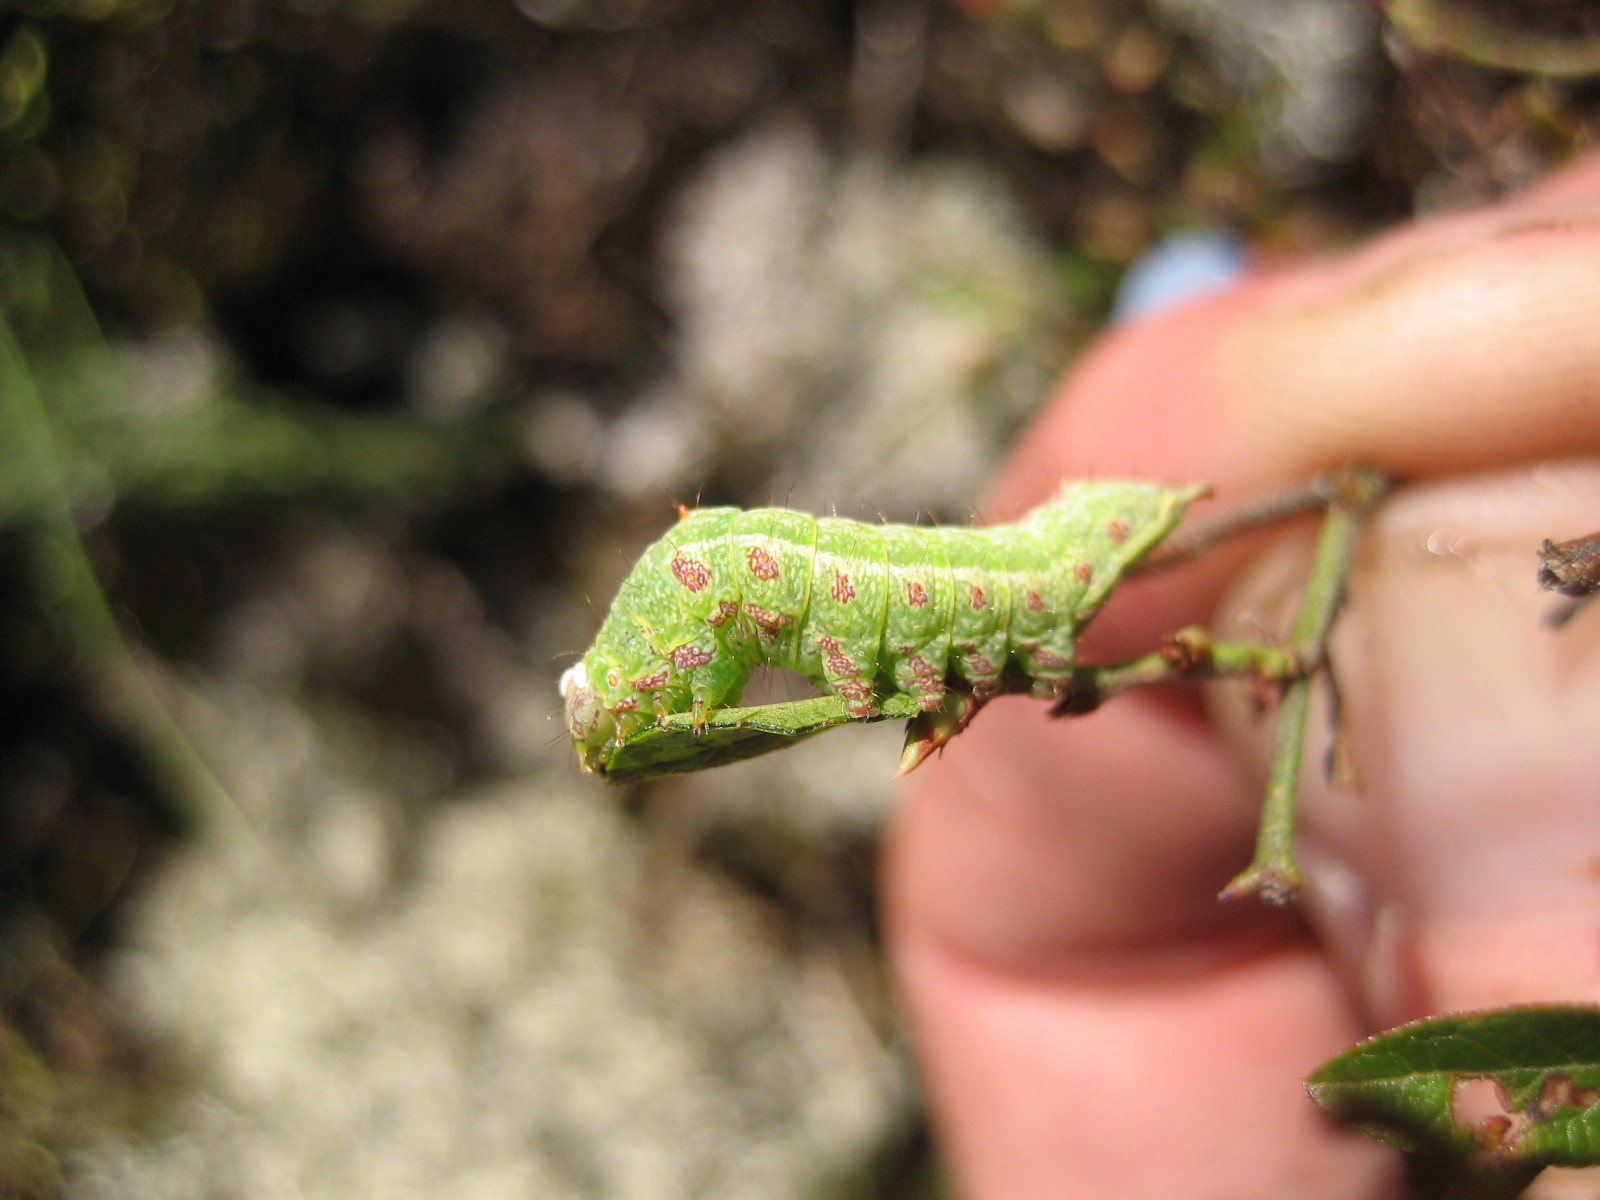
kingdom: Animalia
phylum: Arthropoda
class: Insecta
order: Lepidoptera
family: Notodontidae
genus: Schizura
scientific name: Schizura
